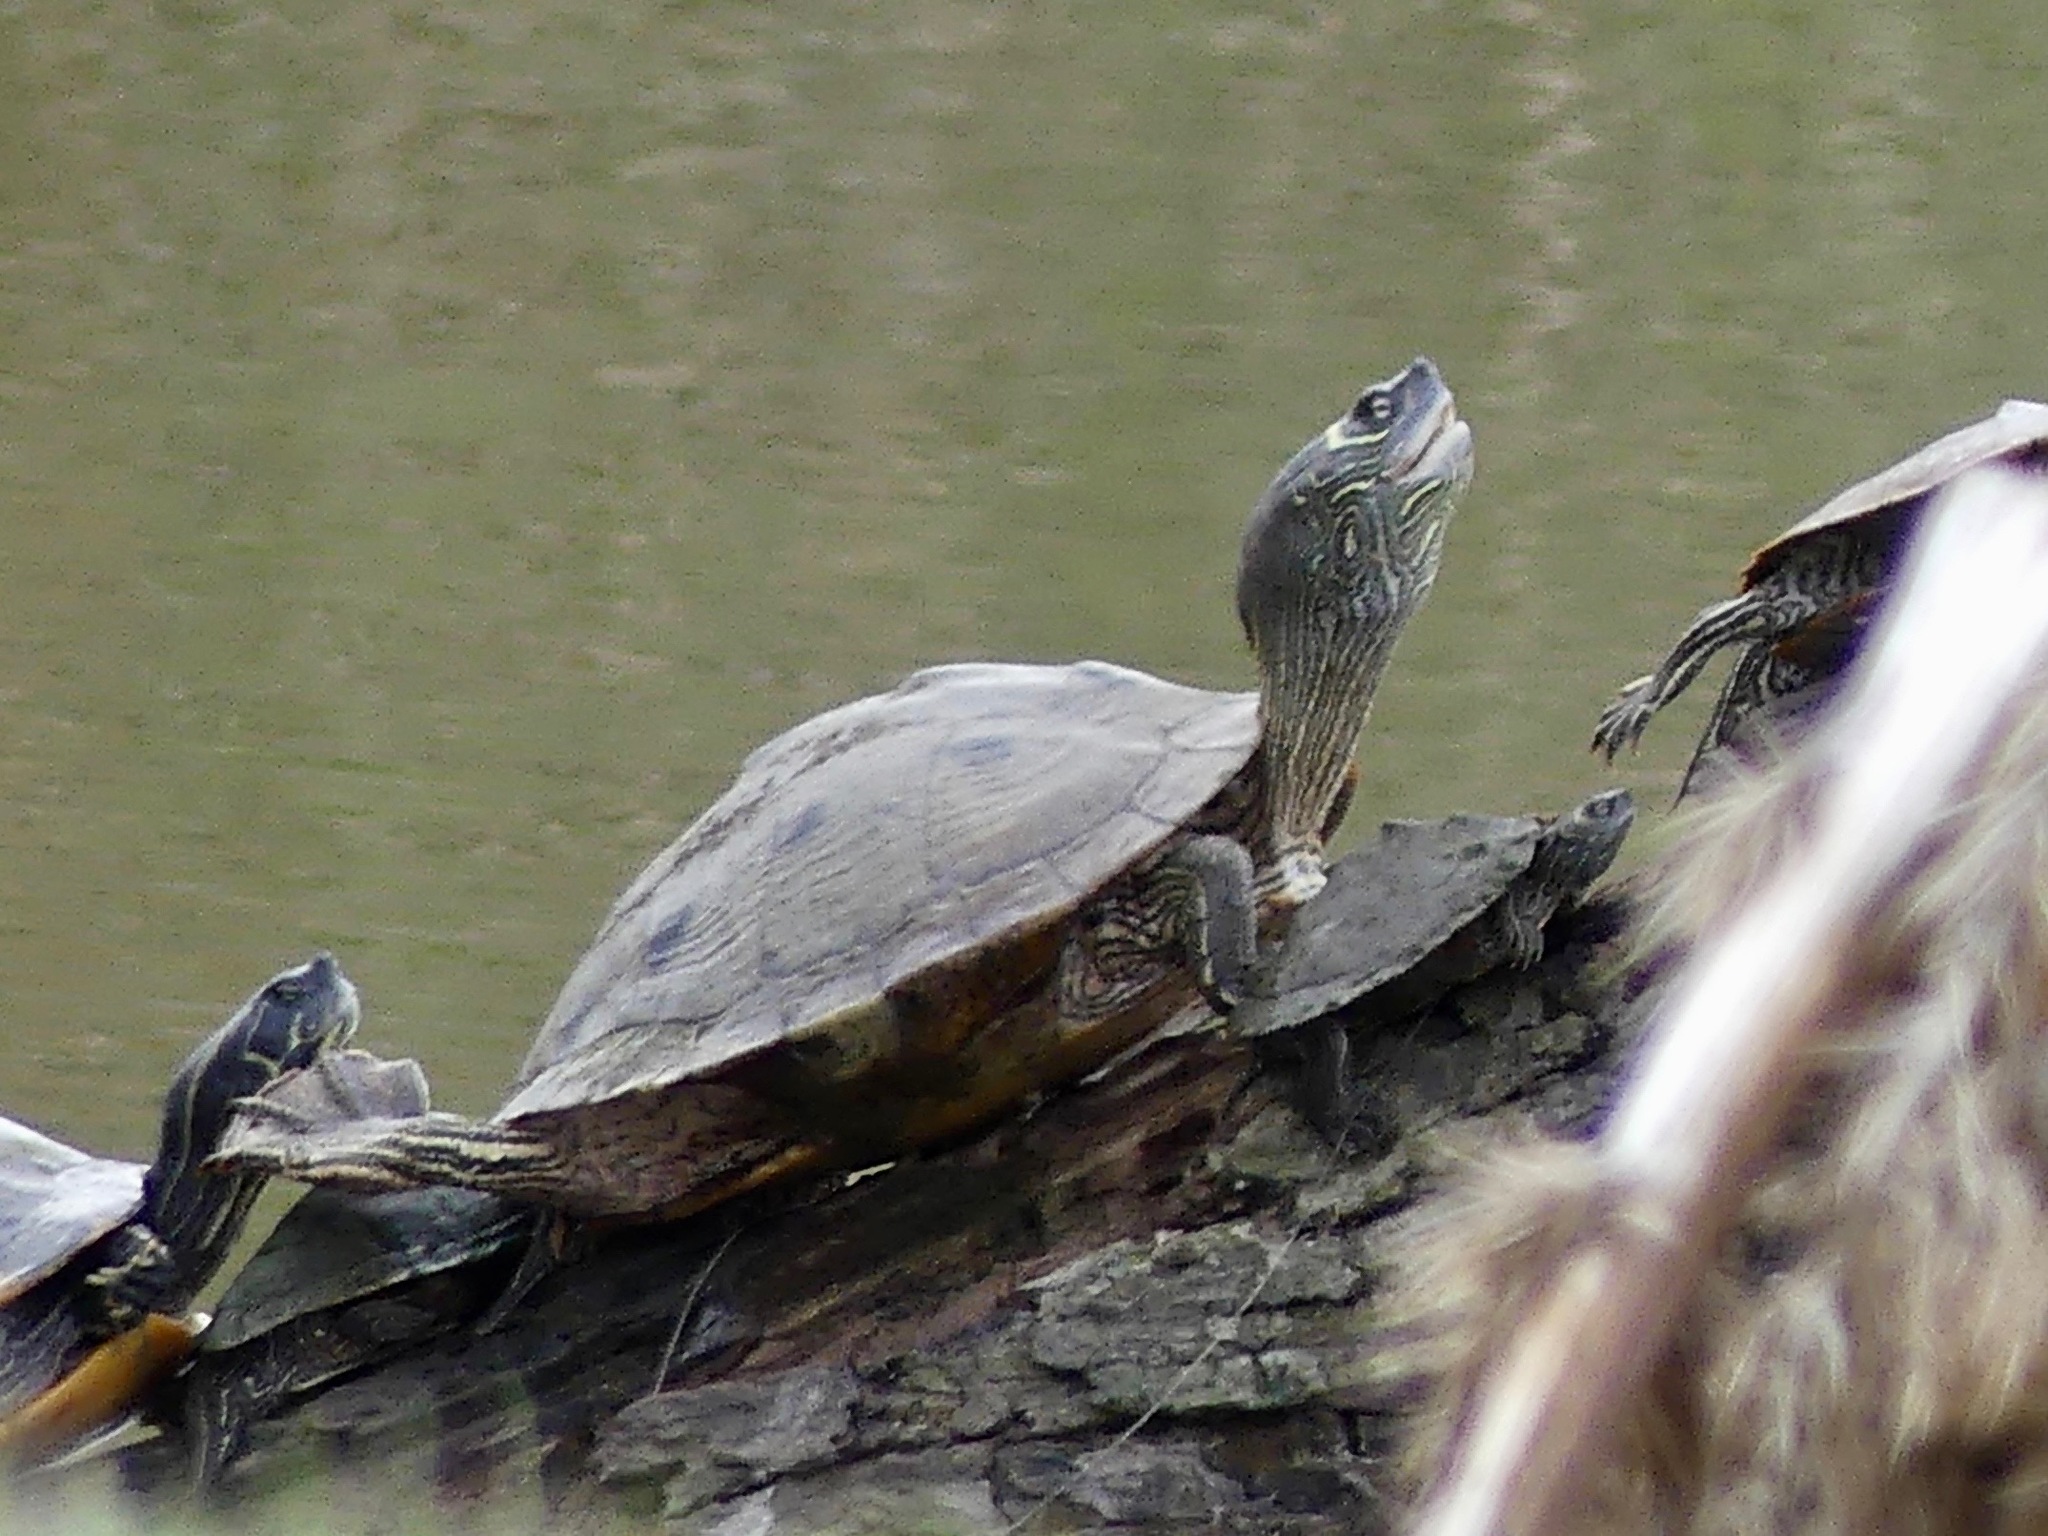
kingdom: Animalia
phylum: Chordata
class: Testudines
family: Emydidae
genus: Graptemys
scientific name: Graptemys pseudogeographica
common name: False map turtle
